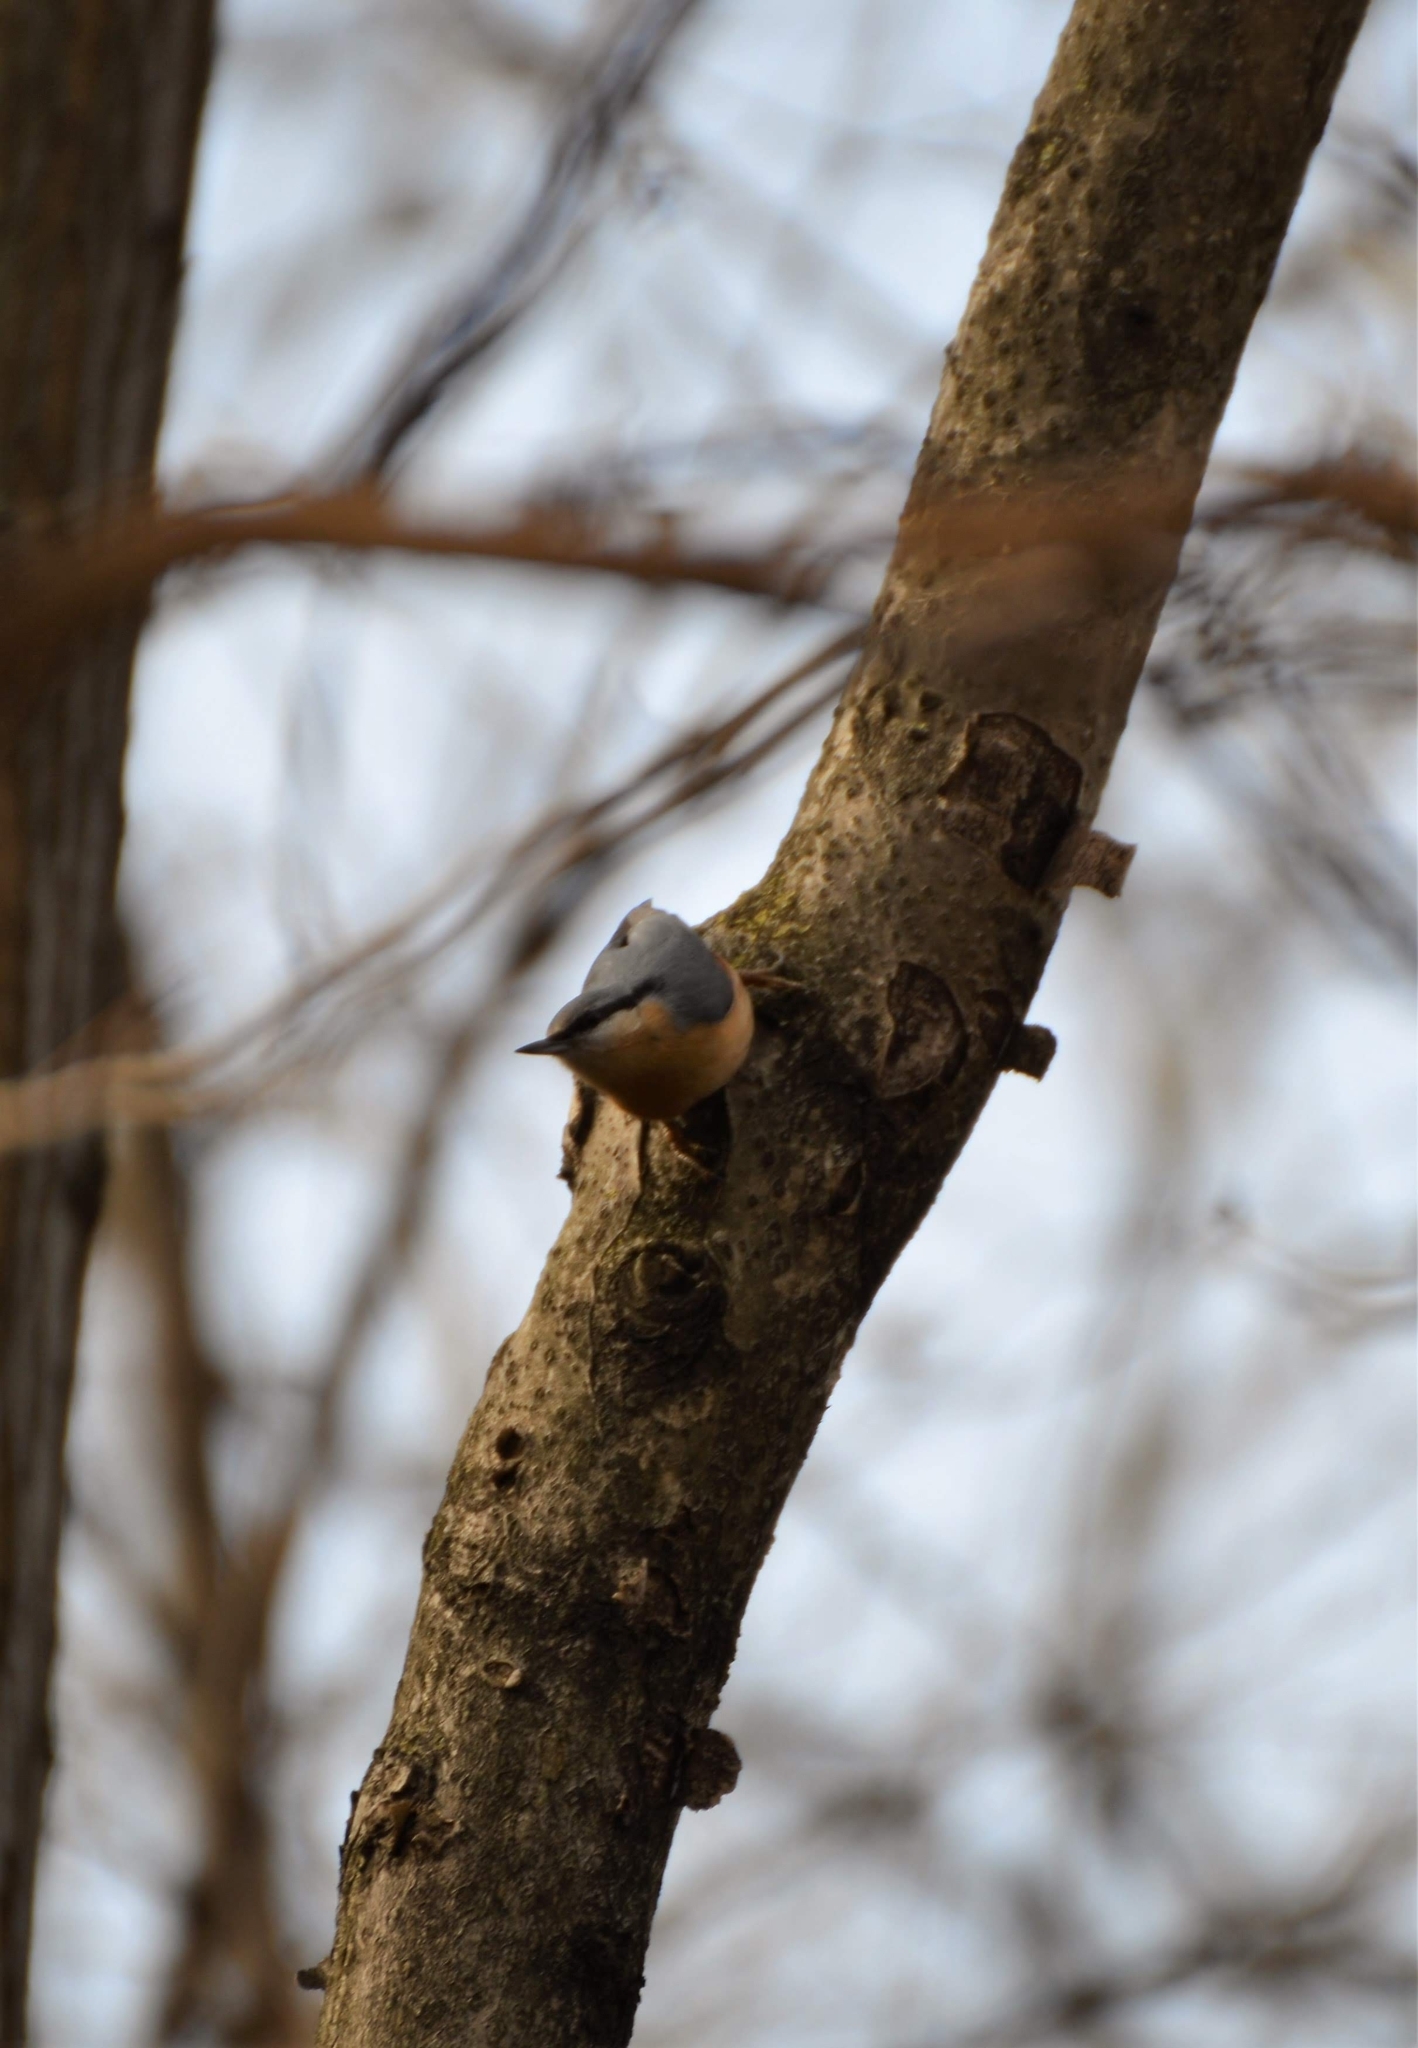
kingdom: Animalia
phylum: Chordata
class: Aves
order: Passeriformes
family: Sittidae
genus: Sitta
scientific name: Sitta europaea
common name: Eurasian nuthatch
